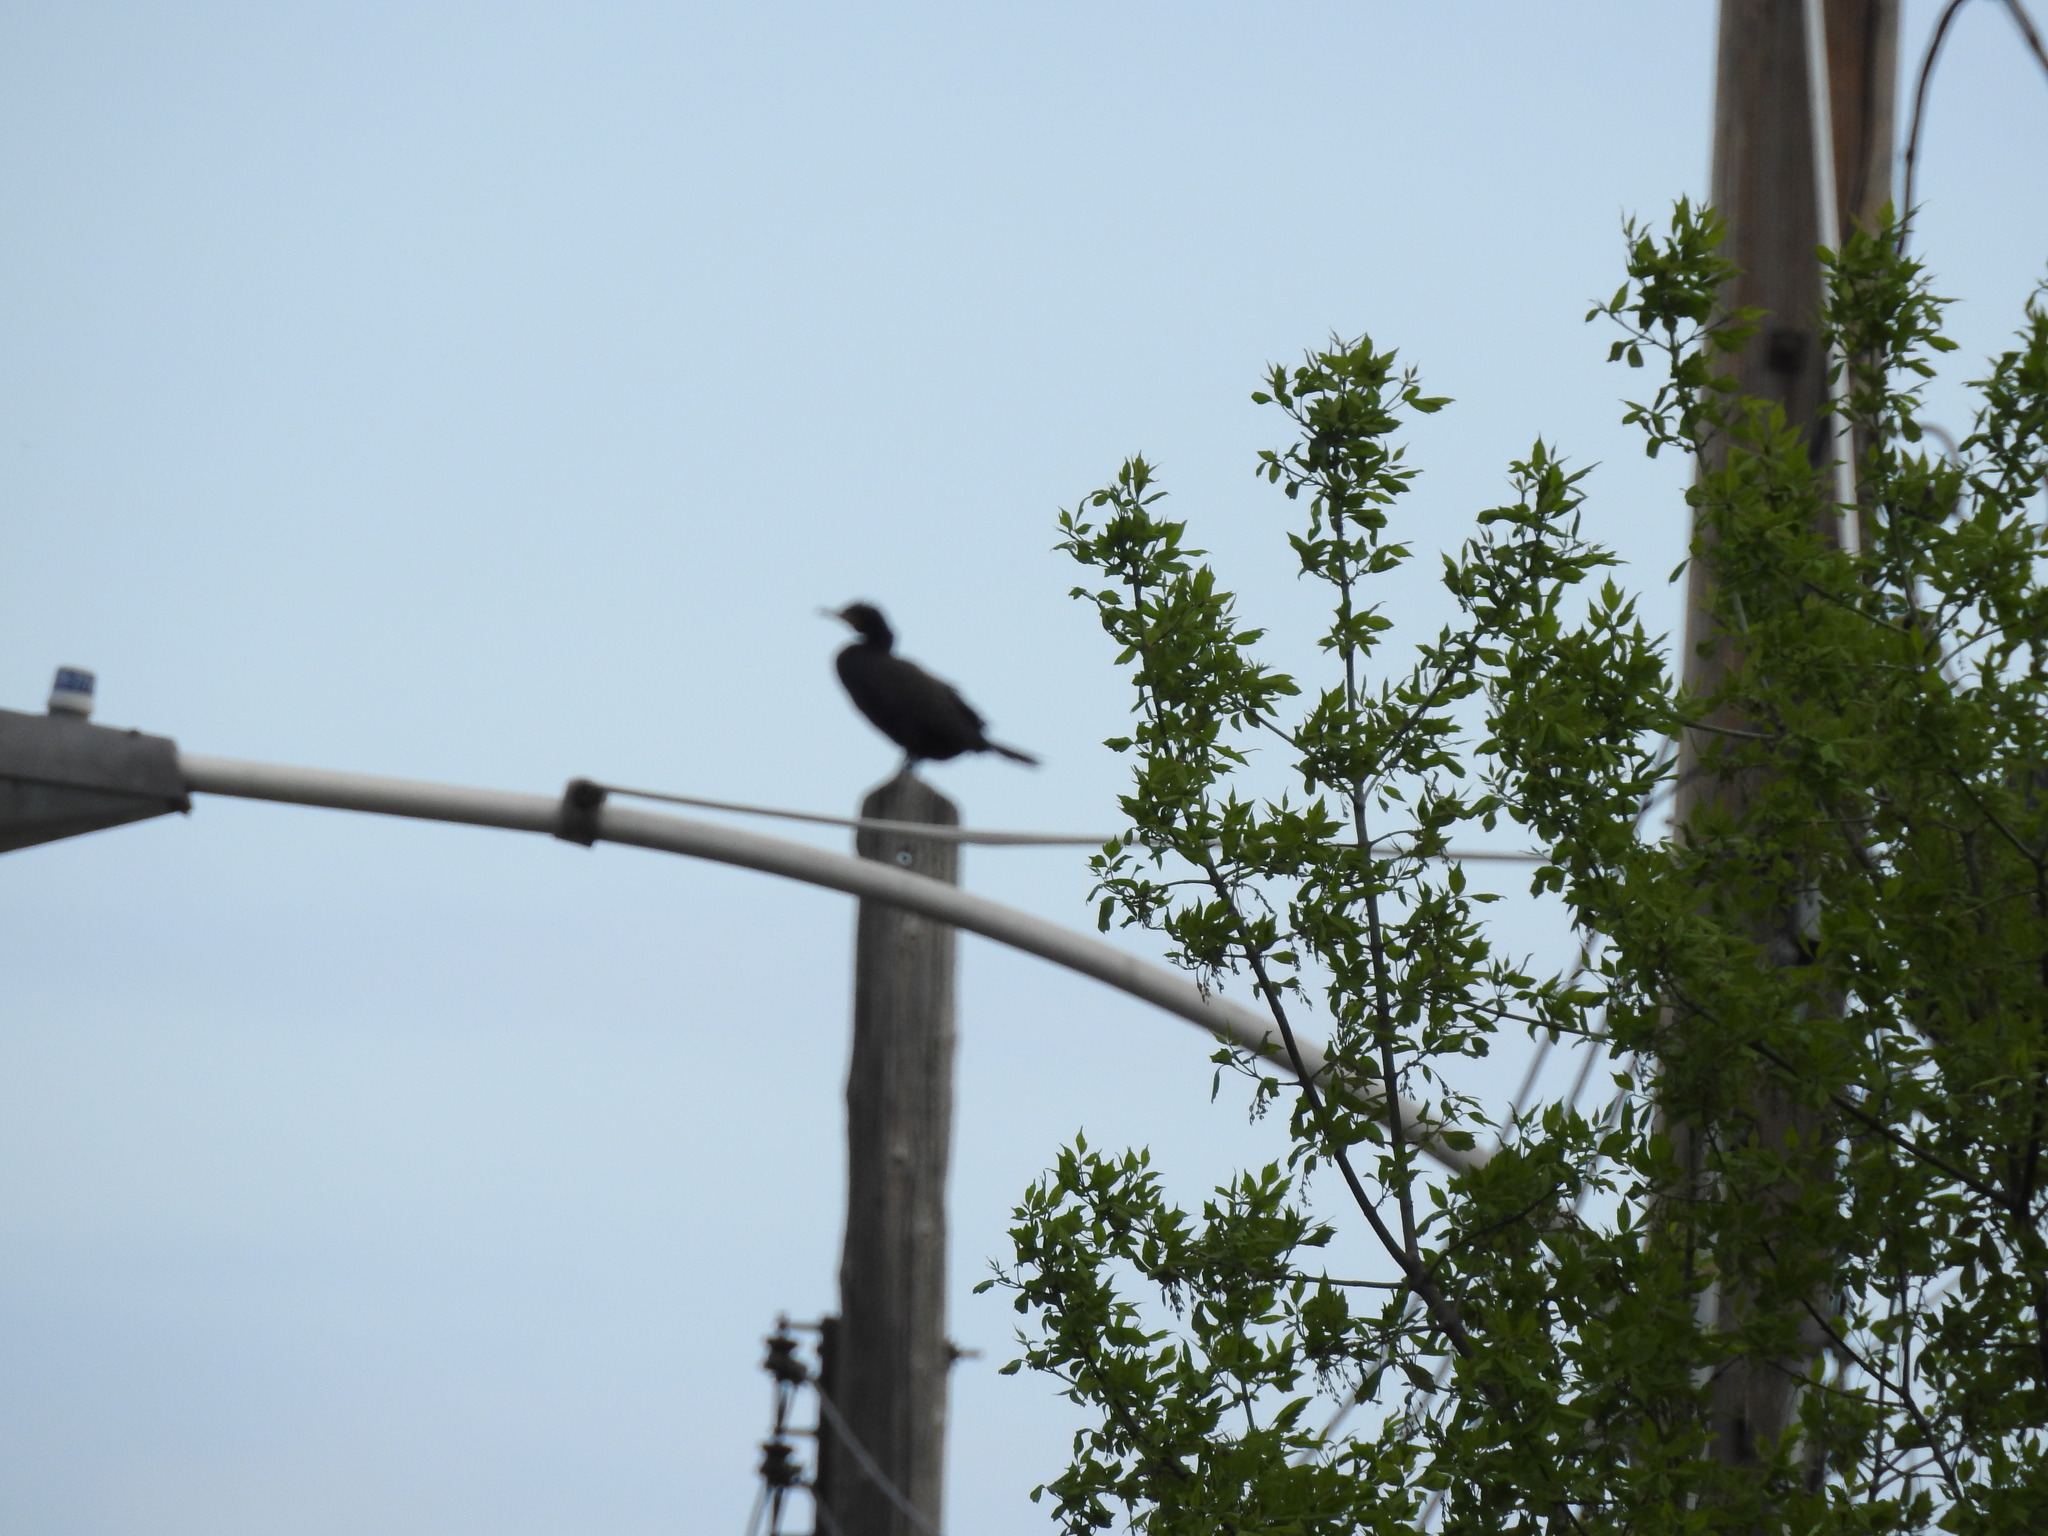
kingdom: Animalia
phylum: Chordata
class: Aves
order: Suliformes
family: Phalacrocoracidae
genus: Phalacrocorax
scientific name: Phalacrocorax auritus
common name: Double-crested cormorant
